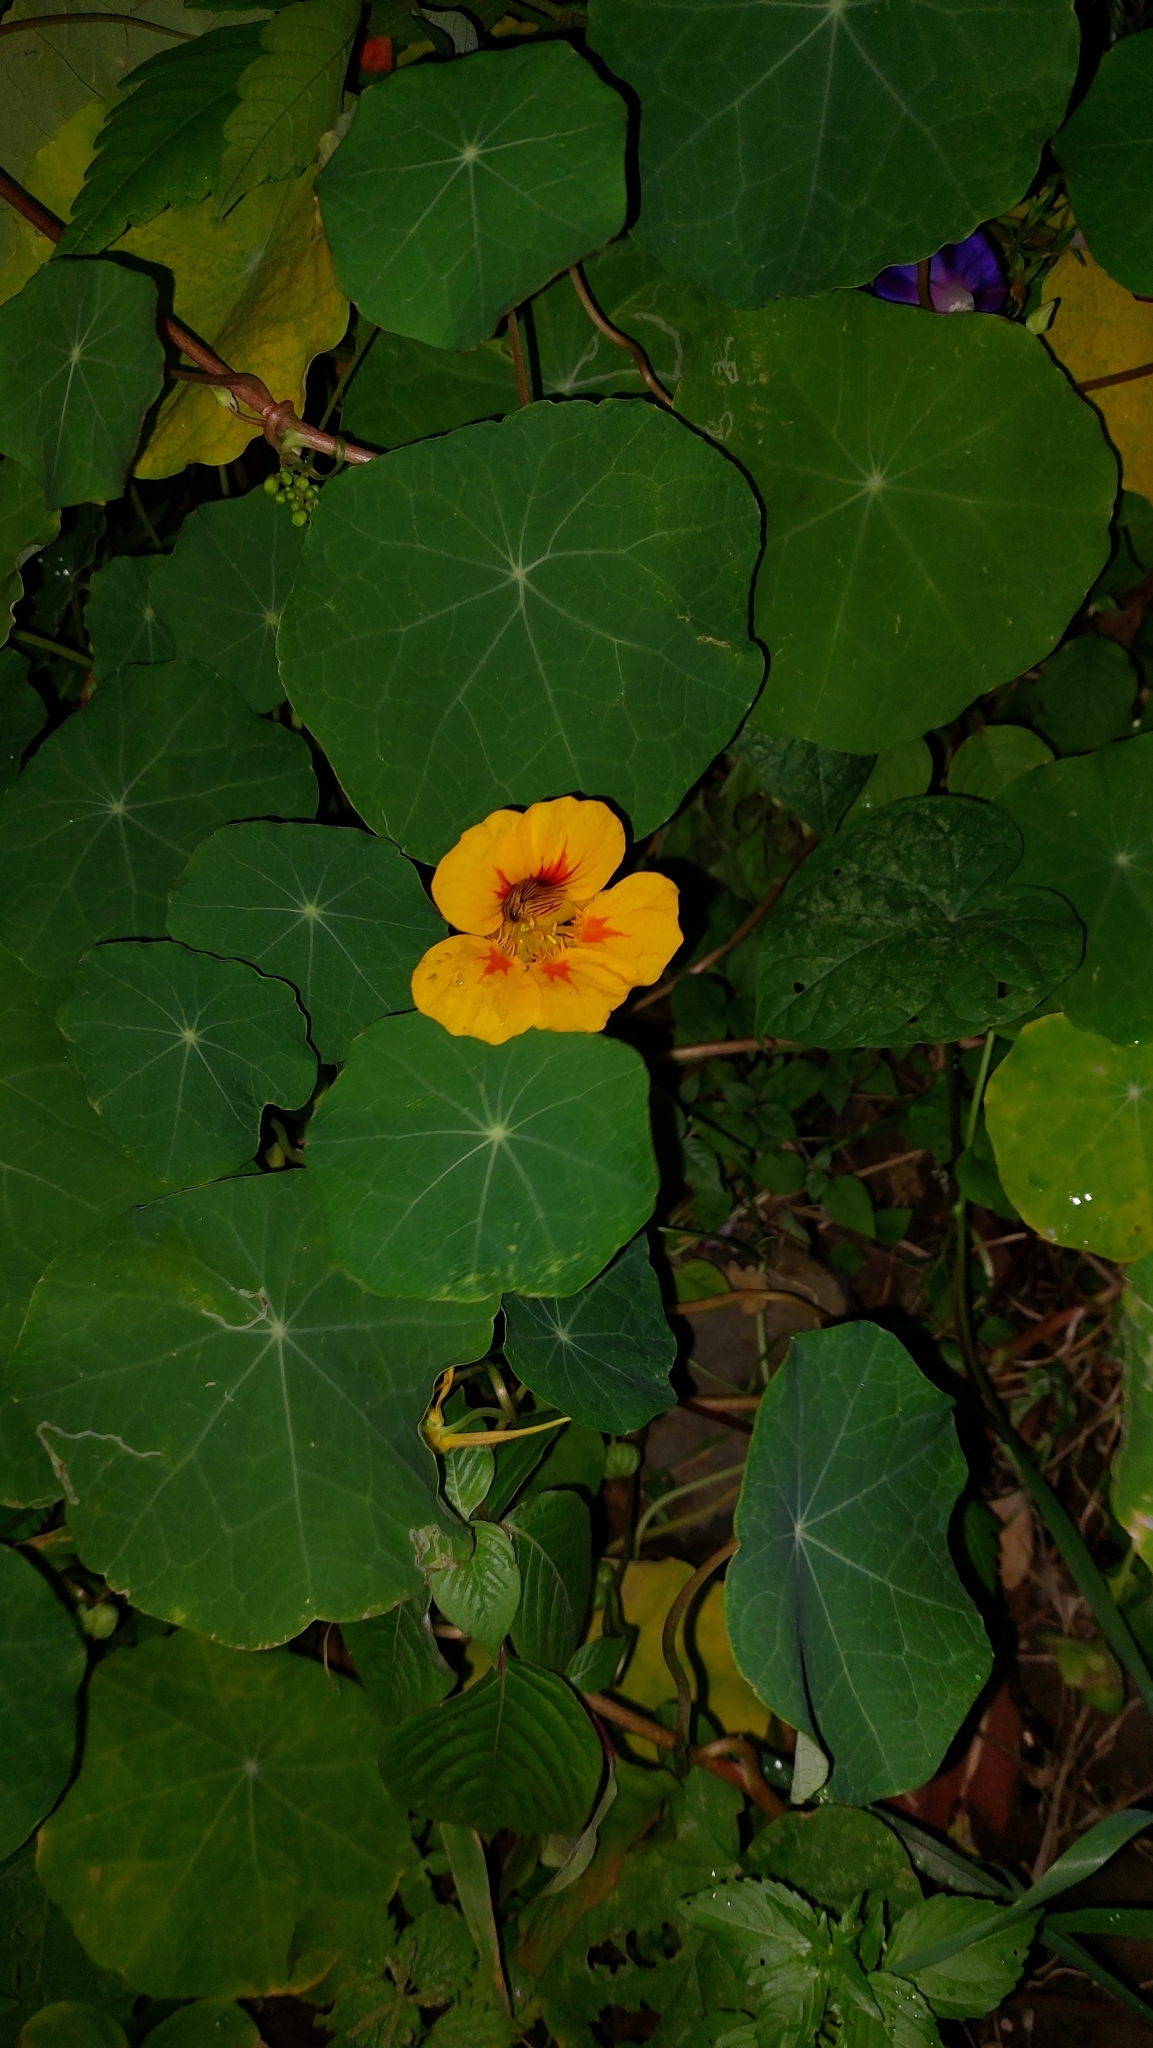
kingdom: Plantae
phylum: Tracheophyta
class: Magnoliopsida
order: Brassicales
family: Tropaeolaceae
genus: Tropaeolum
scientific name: Tropaeolum majus
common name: Nasturtium
